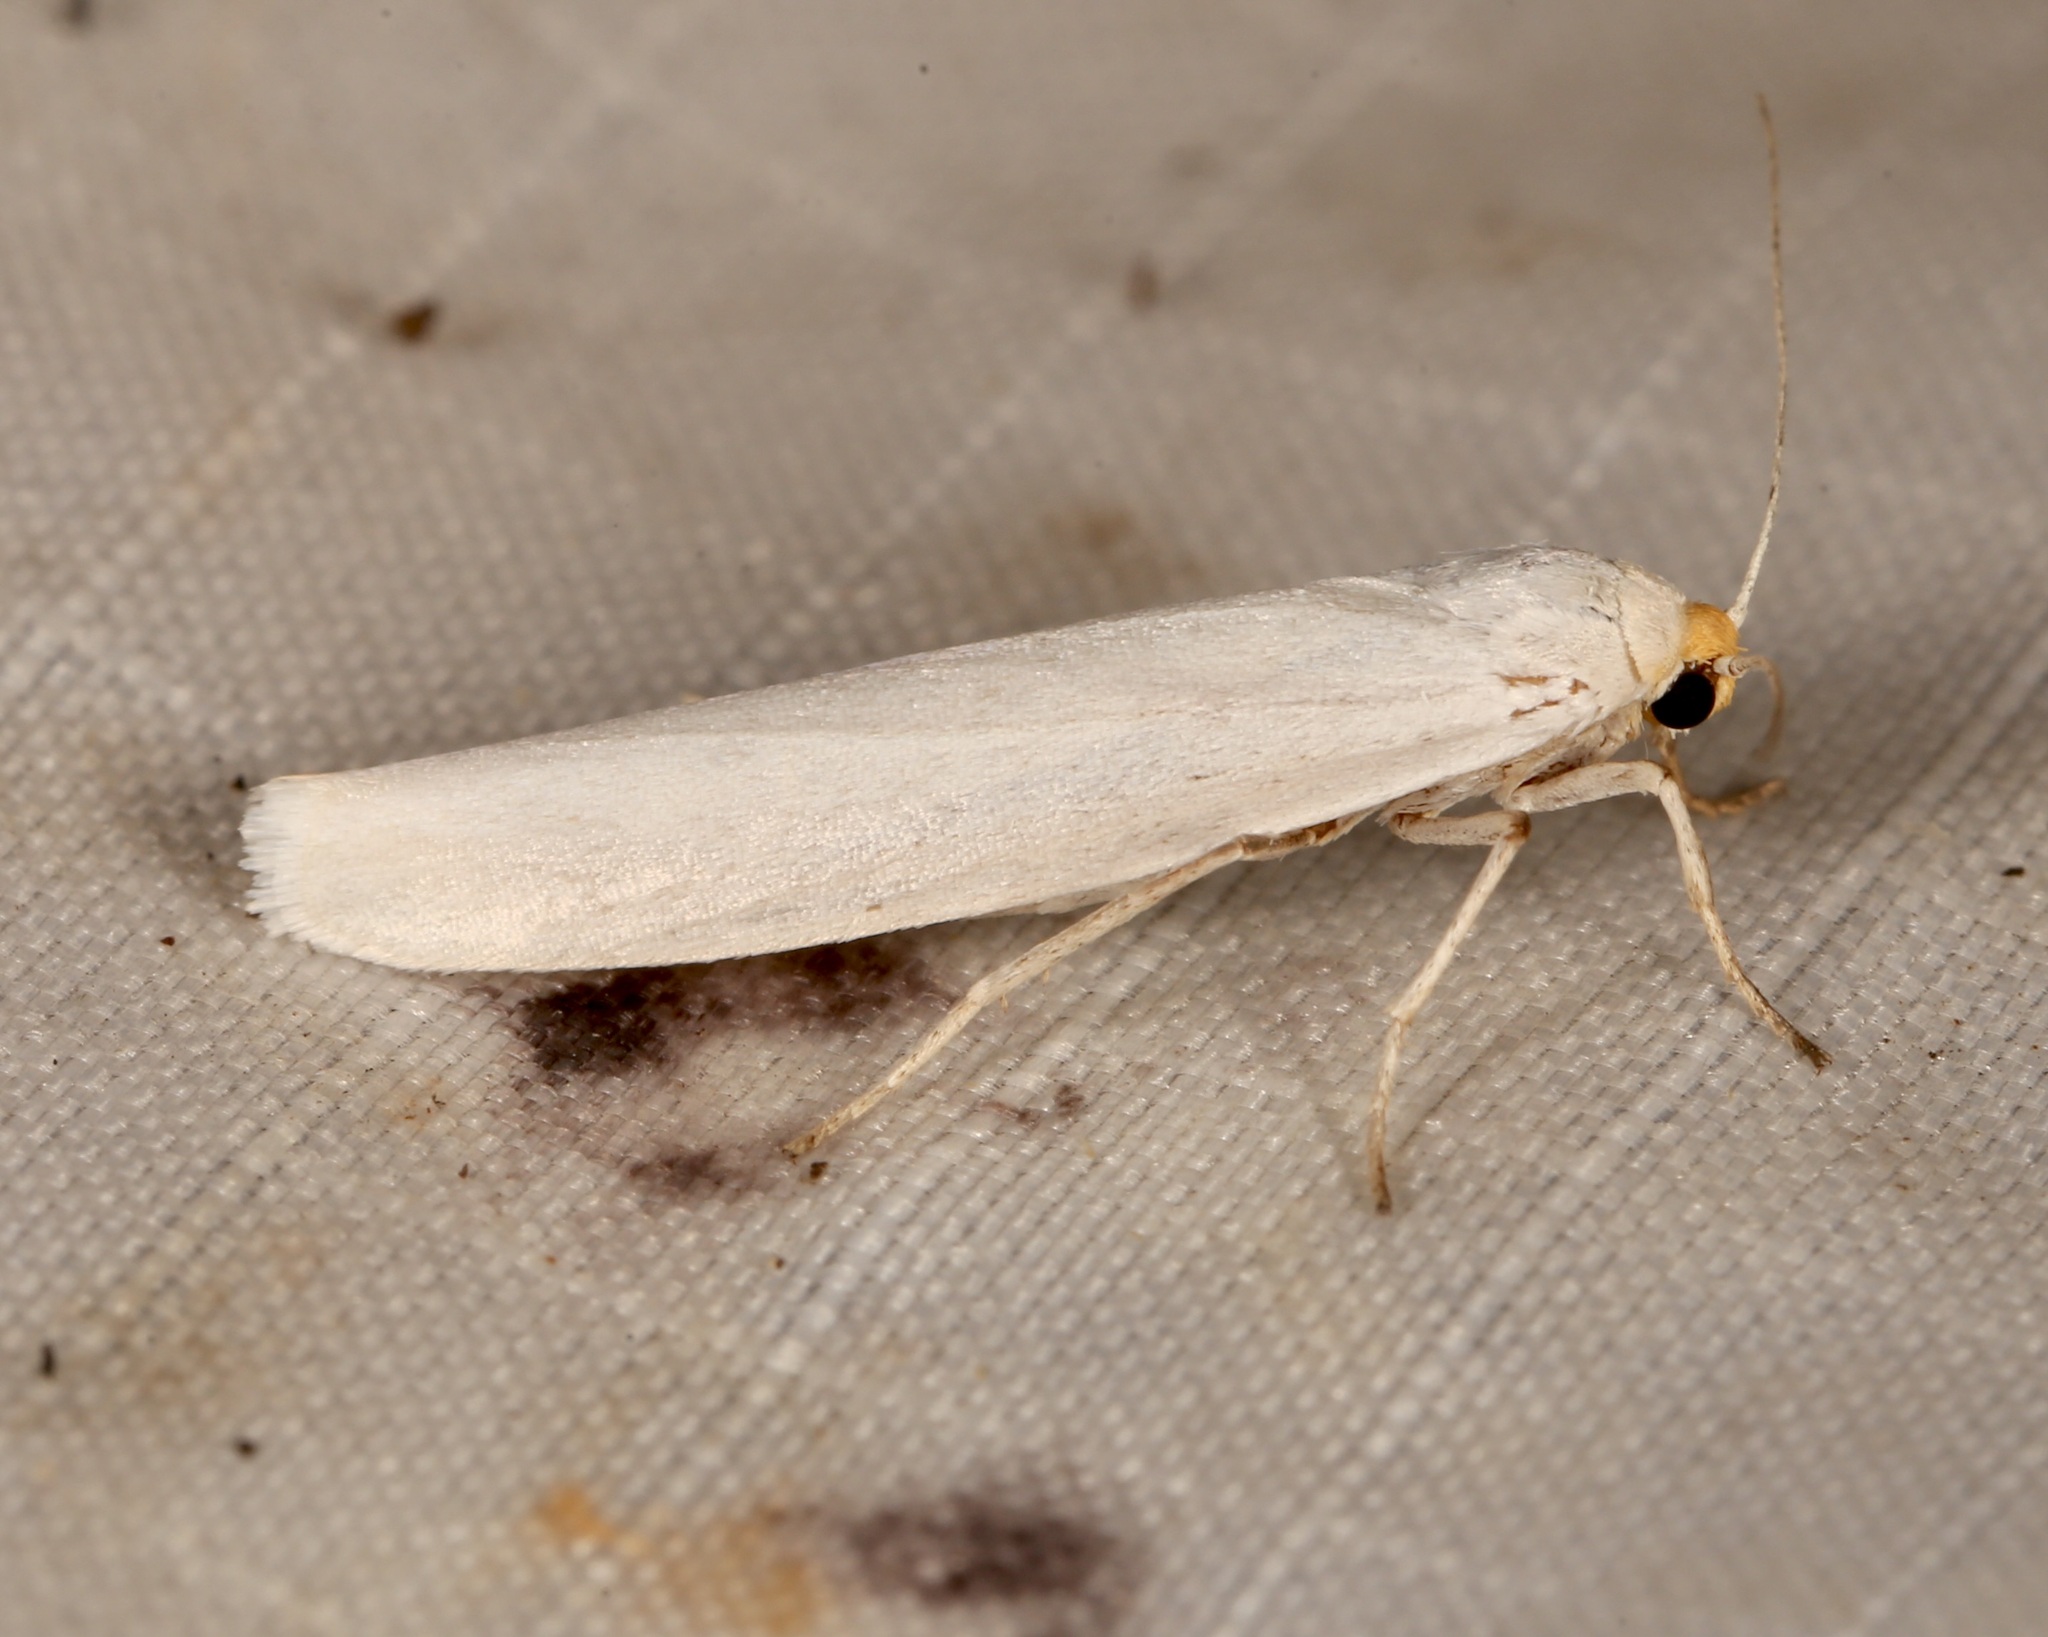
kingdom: Animalia
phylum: Arthropoda
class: Insecta
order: Lepidoptera
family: Erebidae
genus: Crambidia
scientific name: Crambidia cephalica
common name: Yellow-headed lichen moth
